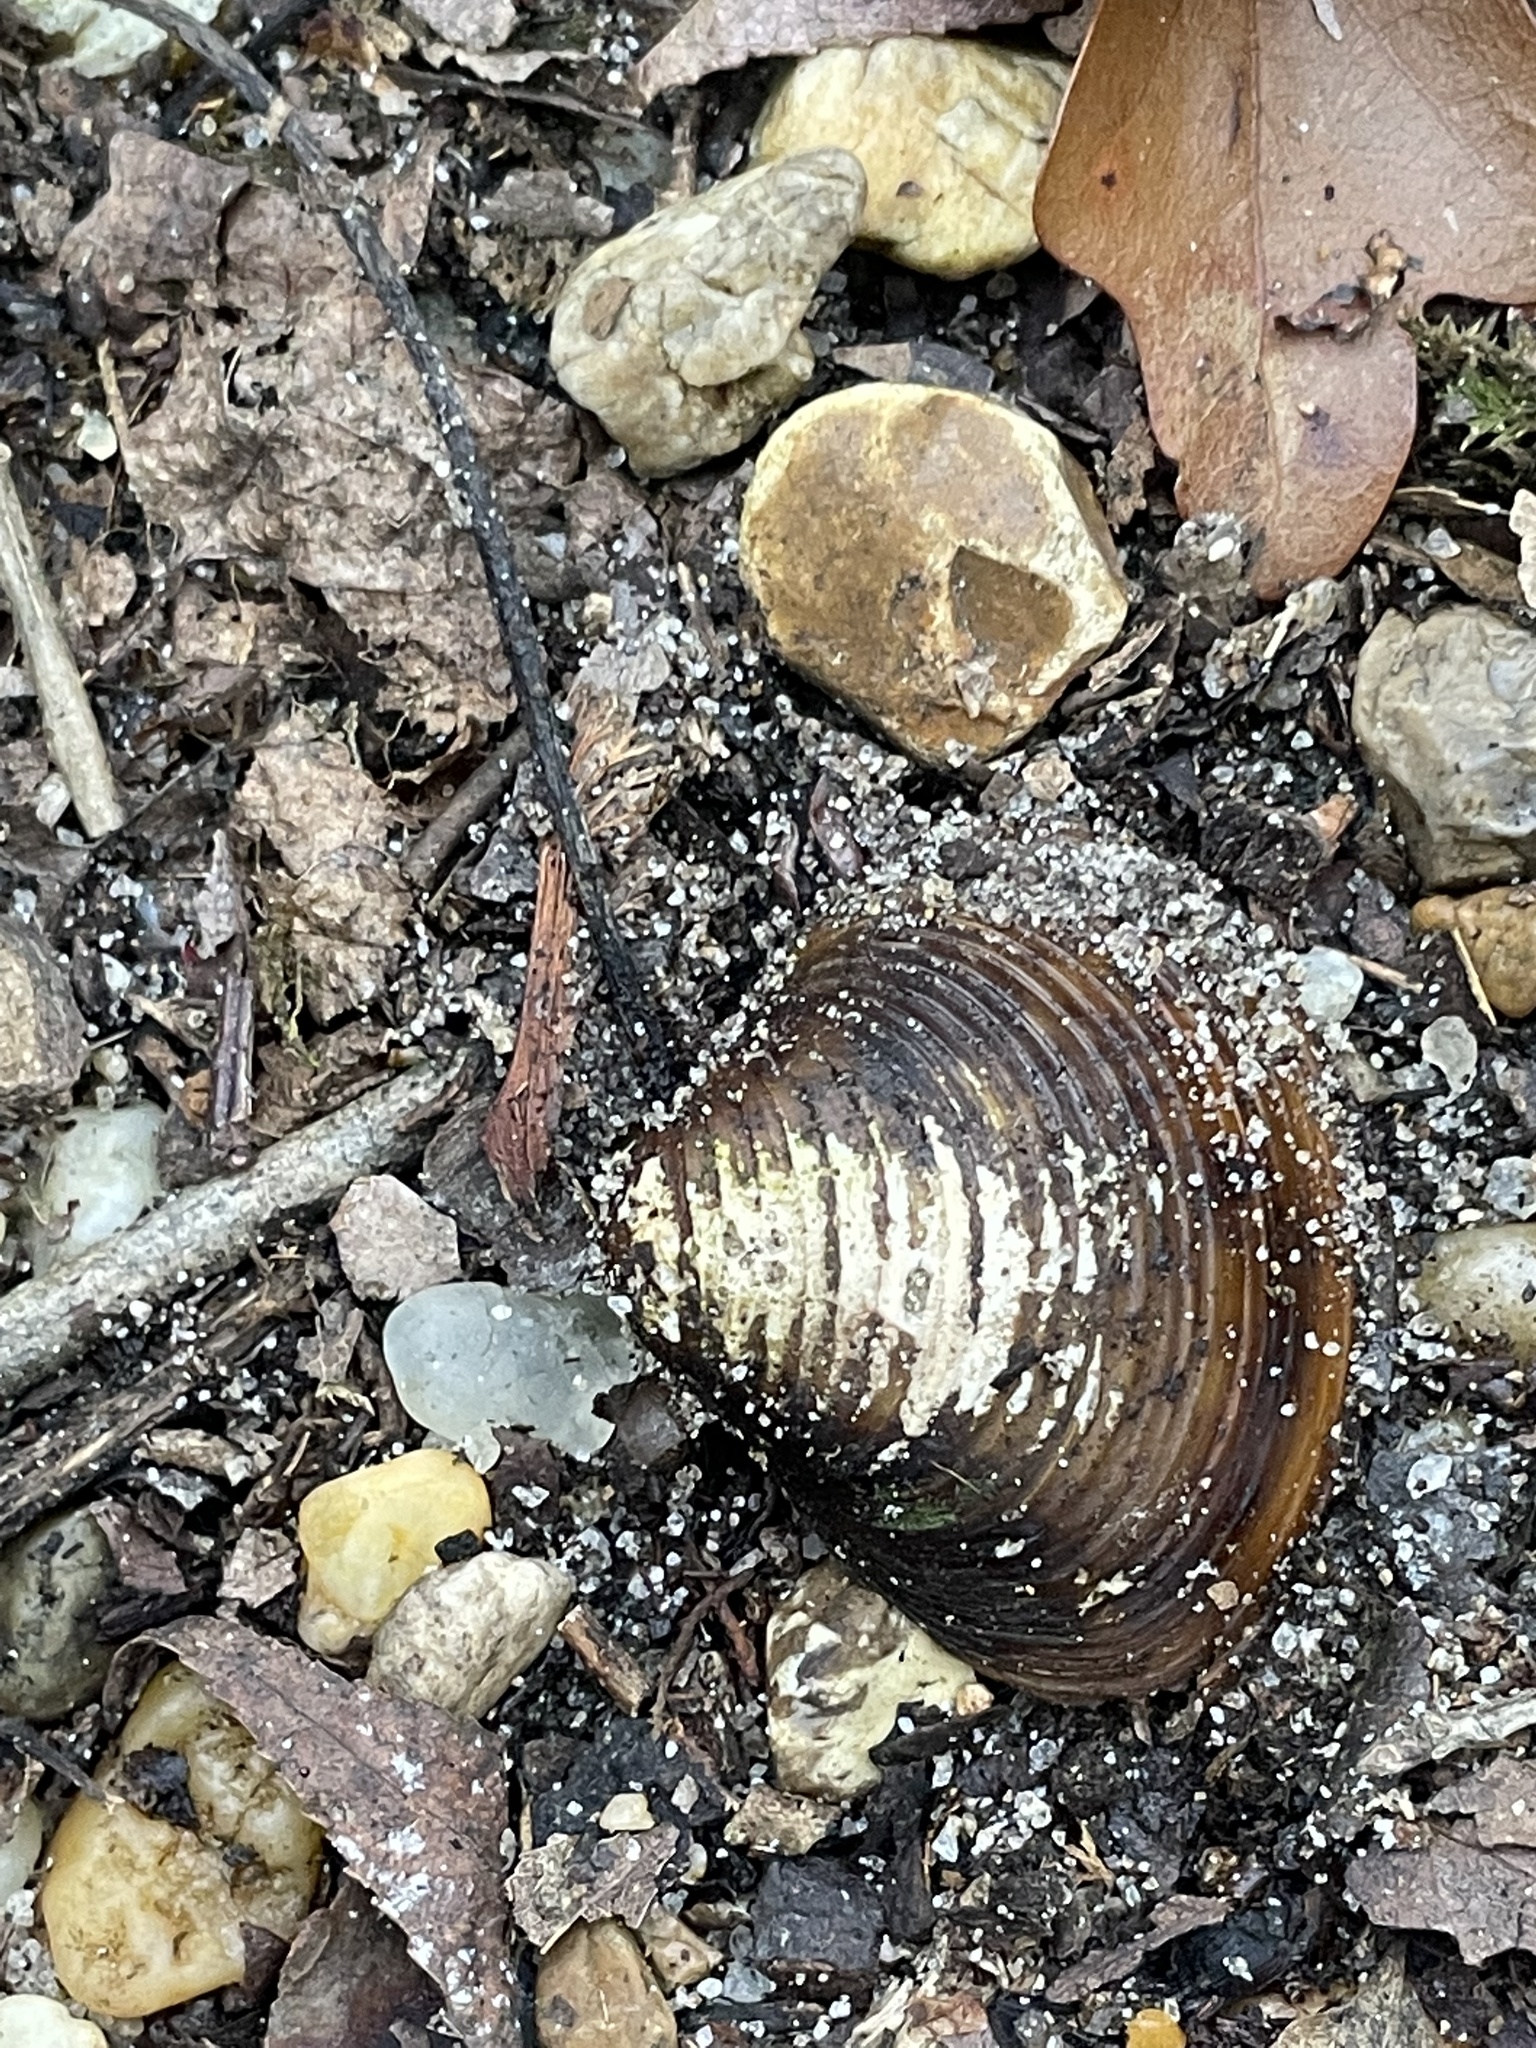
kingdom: Animalia
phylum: Mollusca
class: Bivalvia
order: Venerida
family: Cyrenidae
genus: Corbicula
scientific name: Corbicula fluminea
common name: Asian clam
